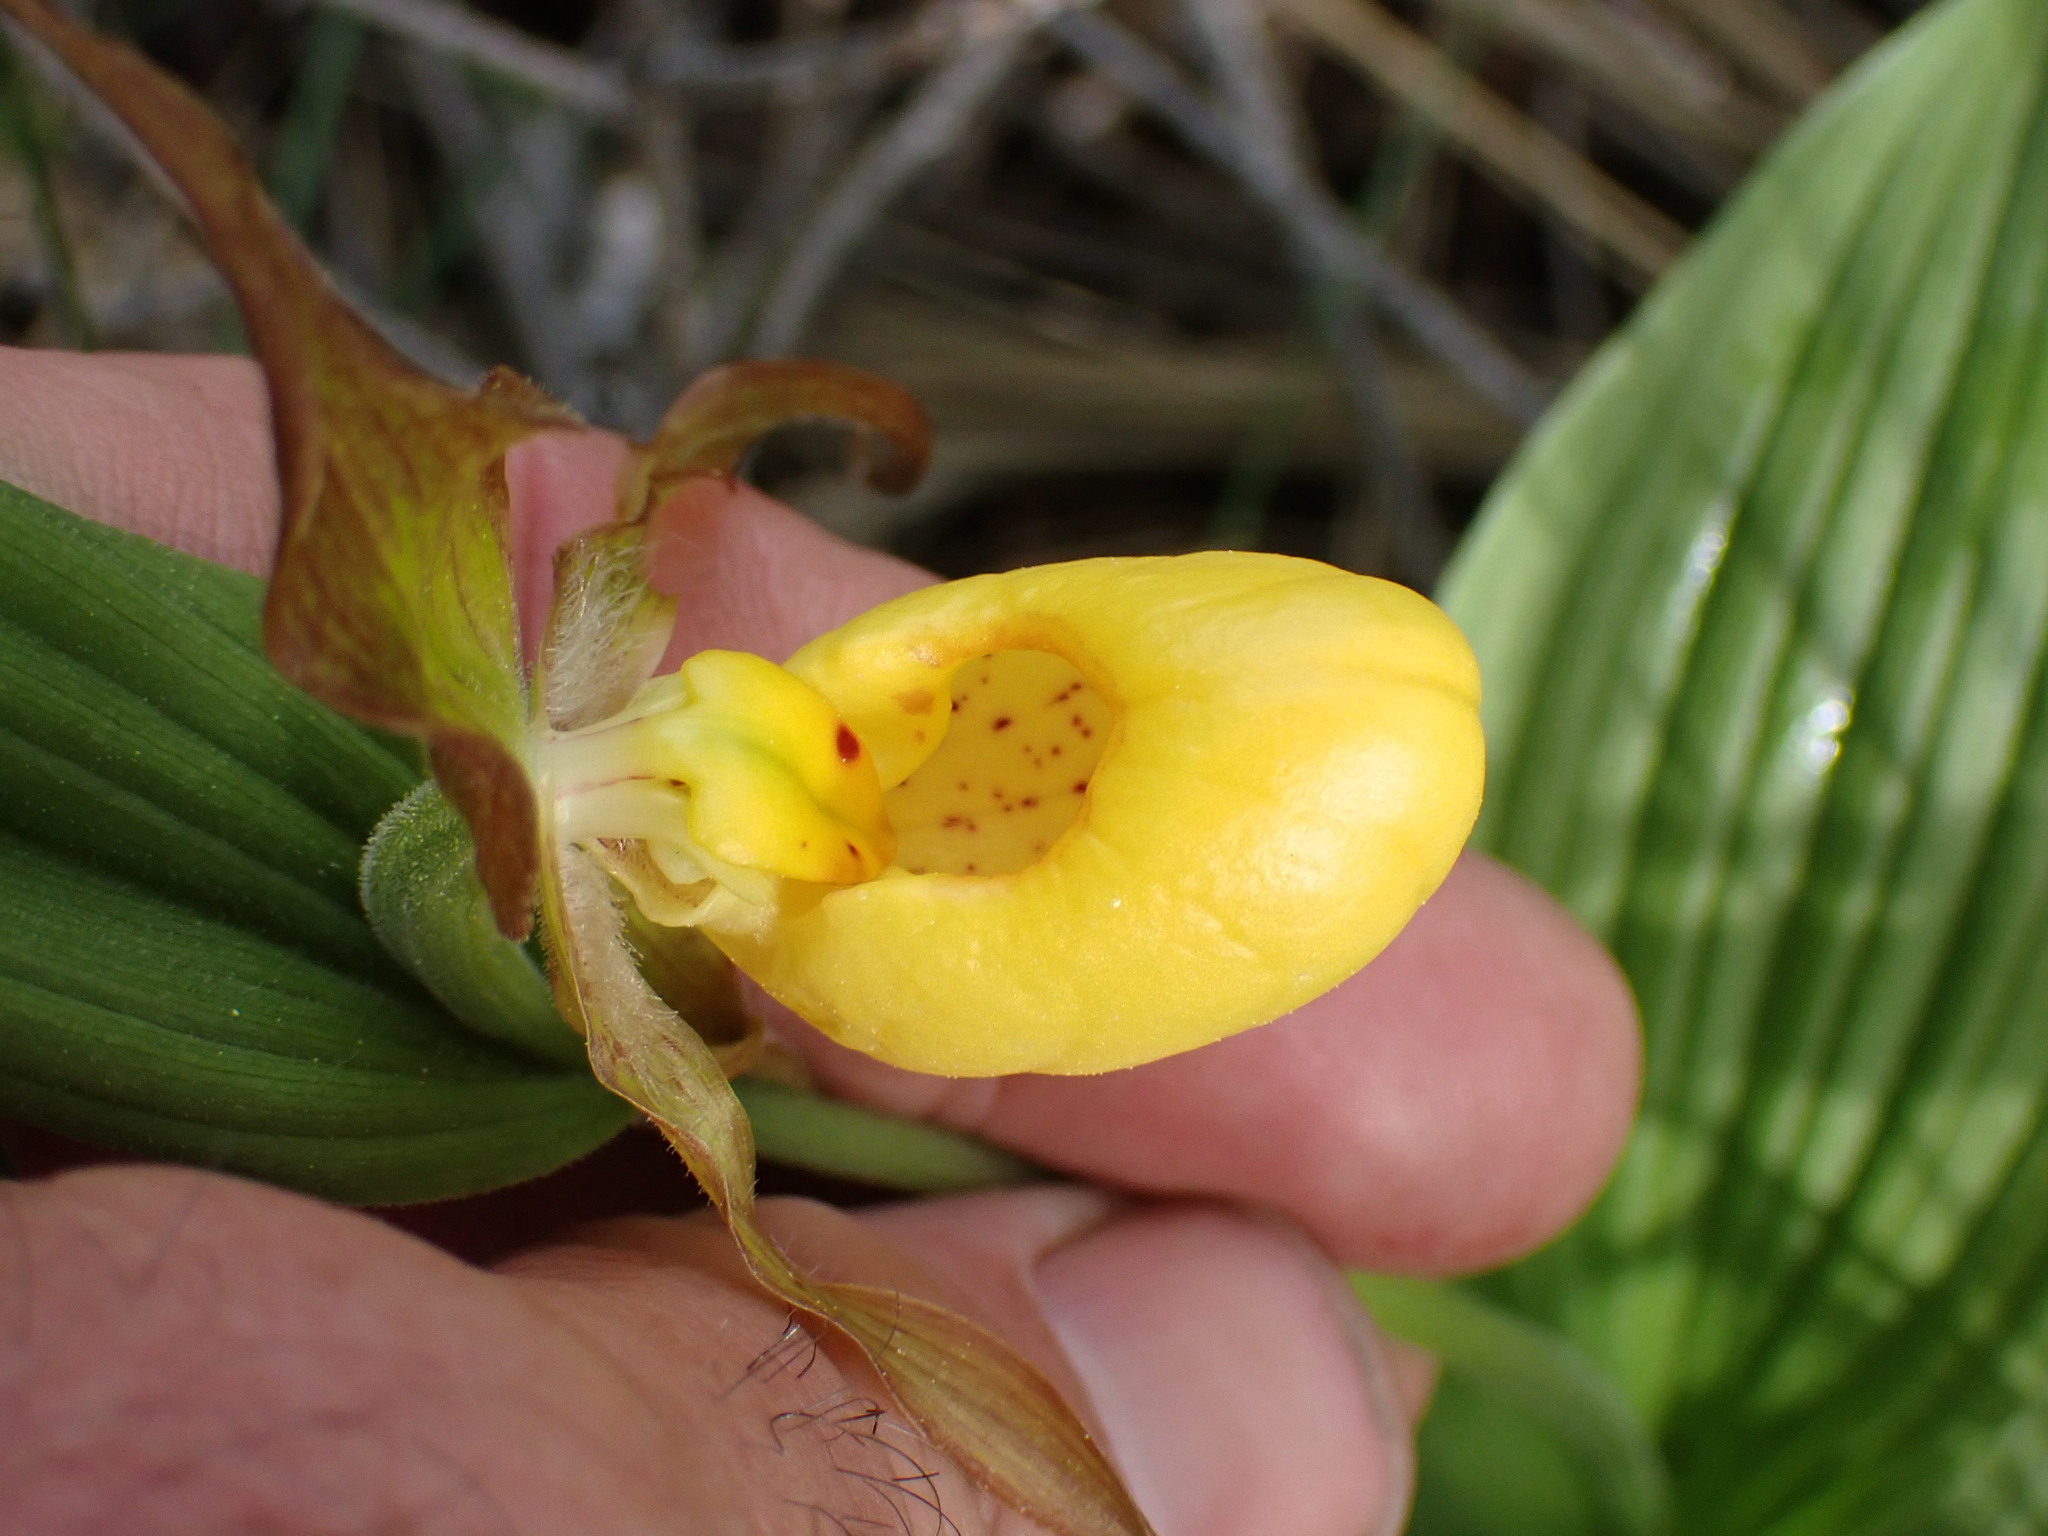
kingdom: Plantae
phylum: Tracheophyta
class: Liliopsida
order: Asparagales
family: Orchidaceae
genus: Cypripedium
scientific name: Cypripedium parviflorum
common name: American yellow lady's-slipper
